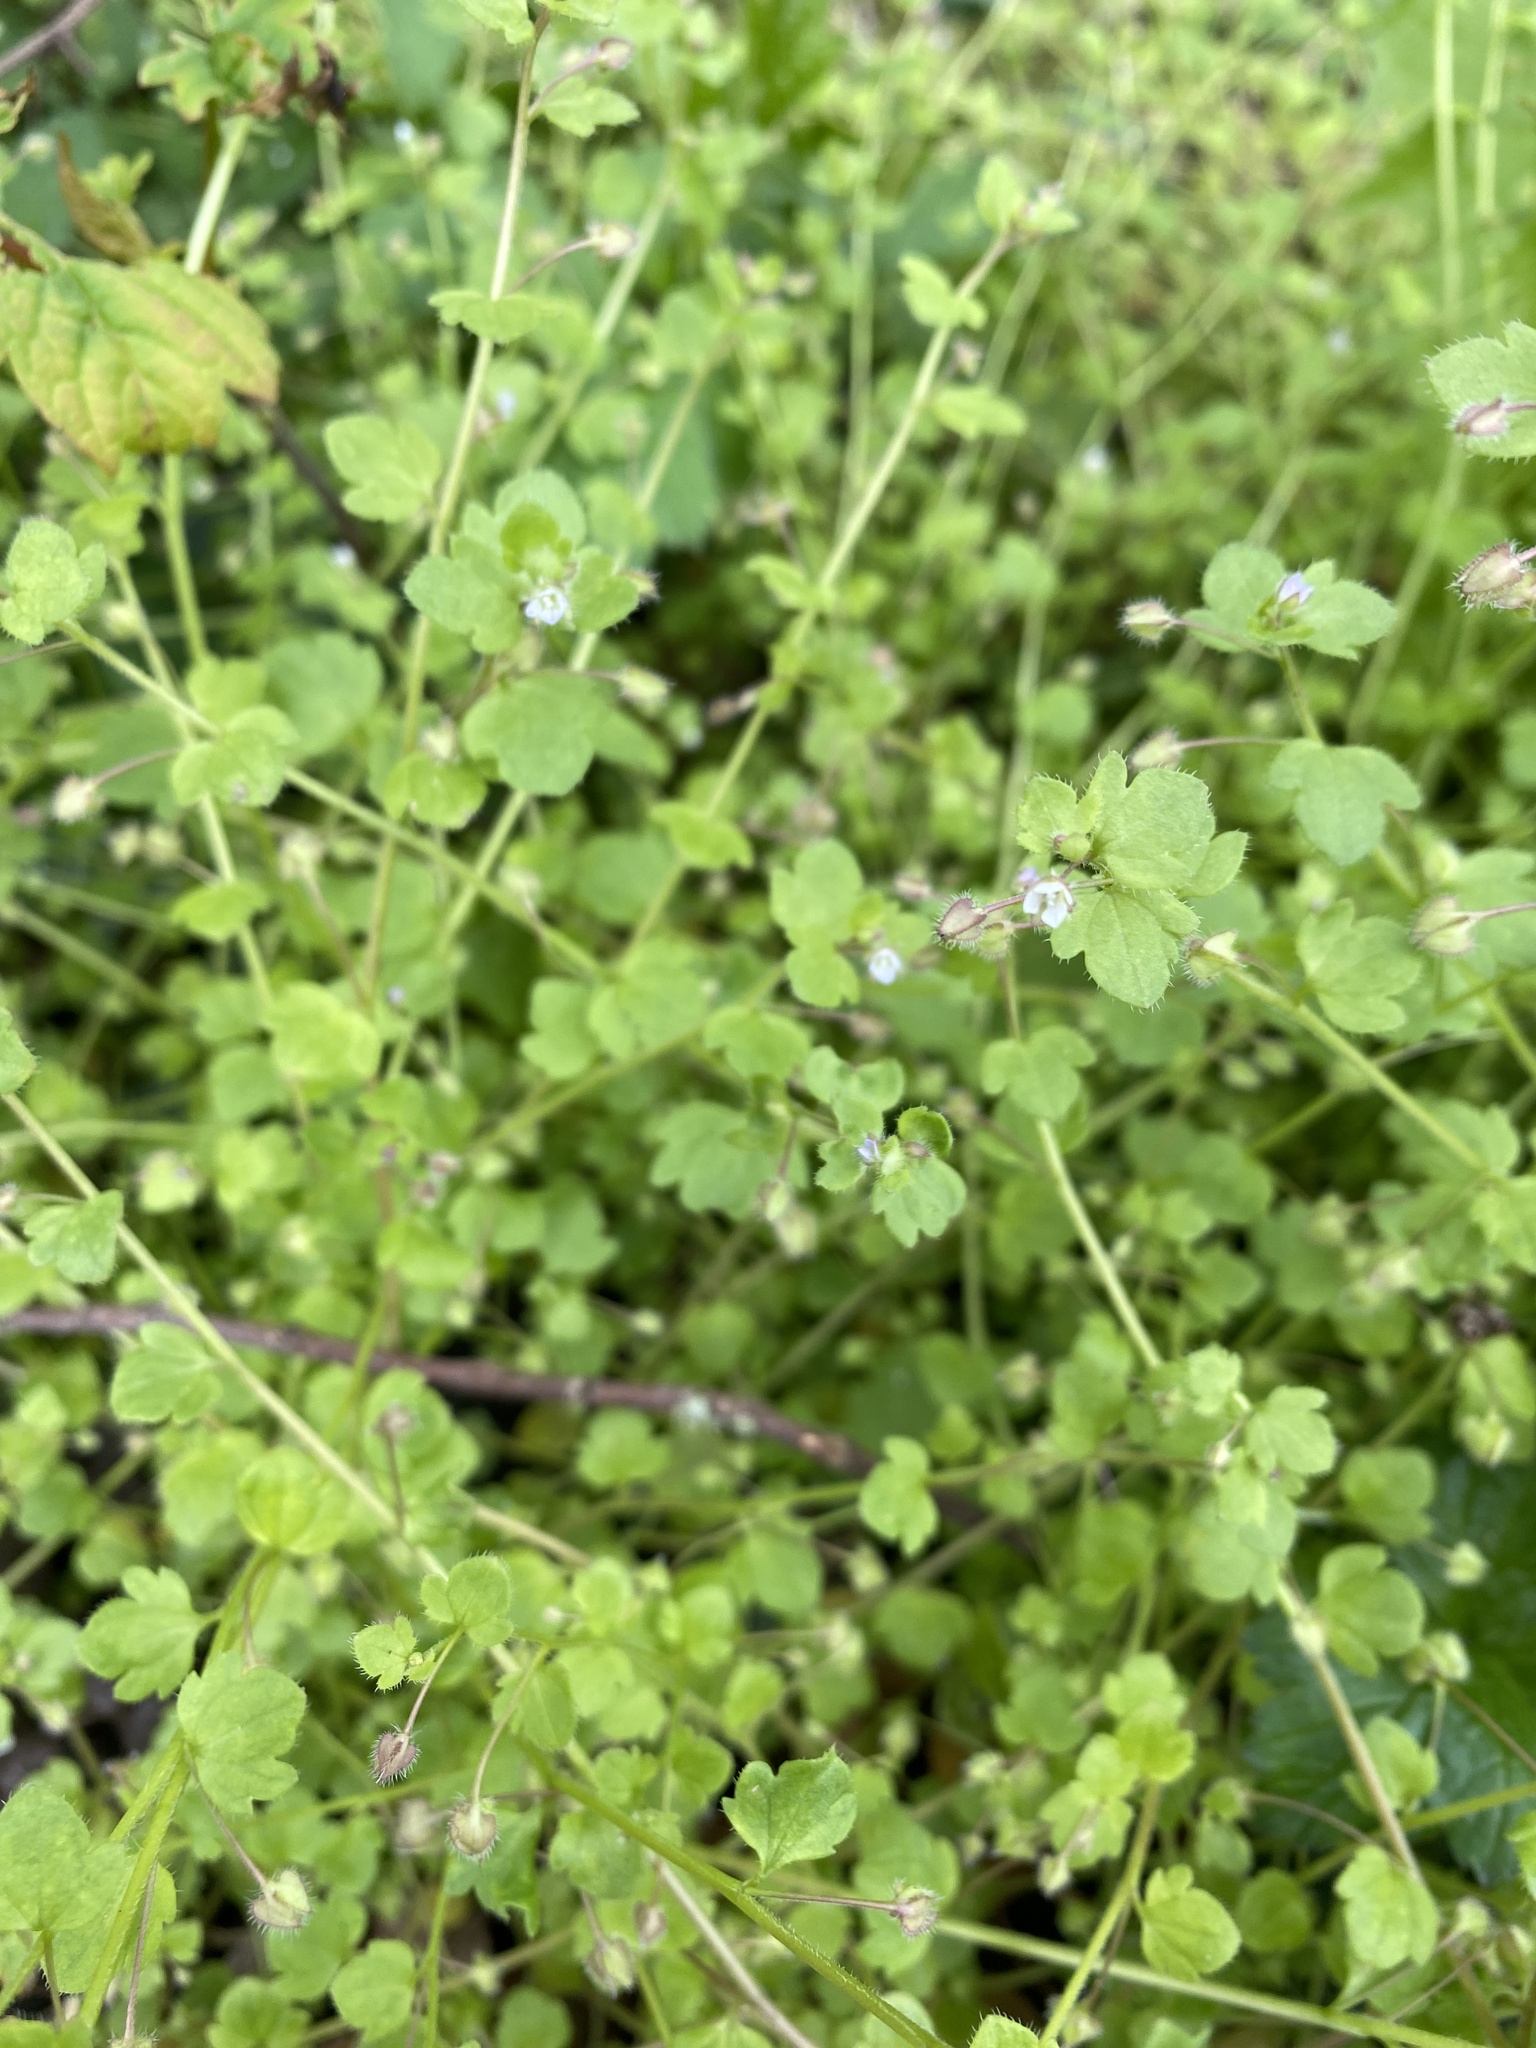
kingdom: Plantae
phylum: Tracheophyta
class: Magnoliopsida
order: Lamiales
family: Plantaginaceae
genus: Veronica
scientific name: Veronica sublobata
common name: False ivy-leaved speedwell
